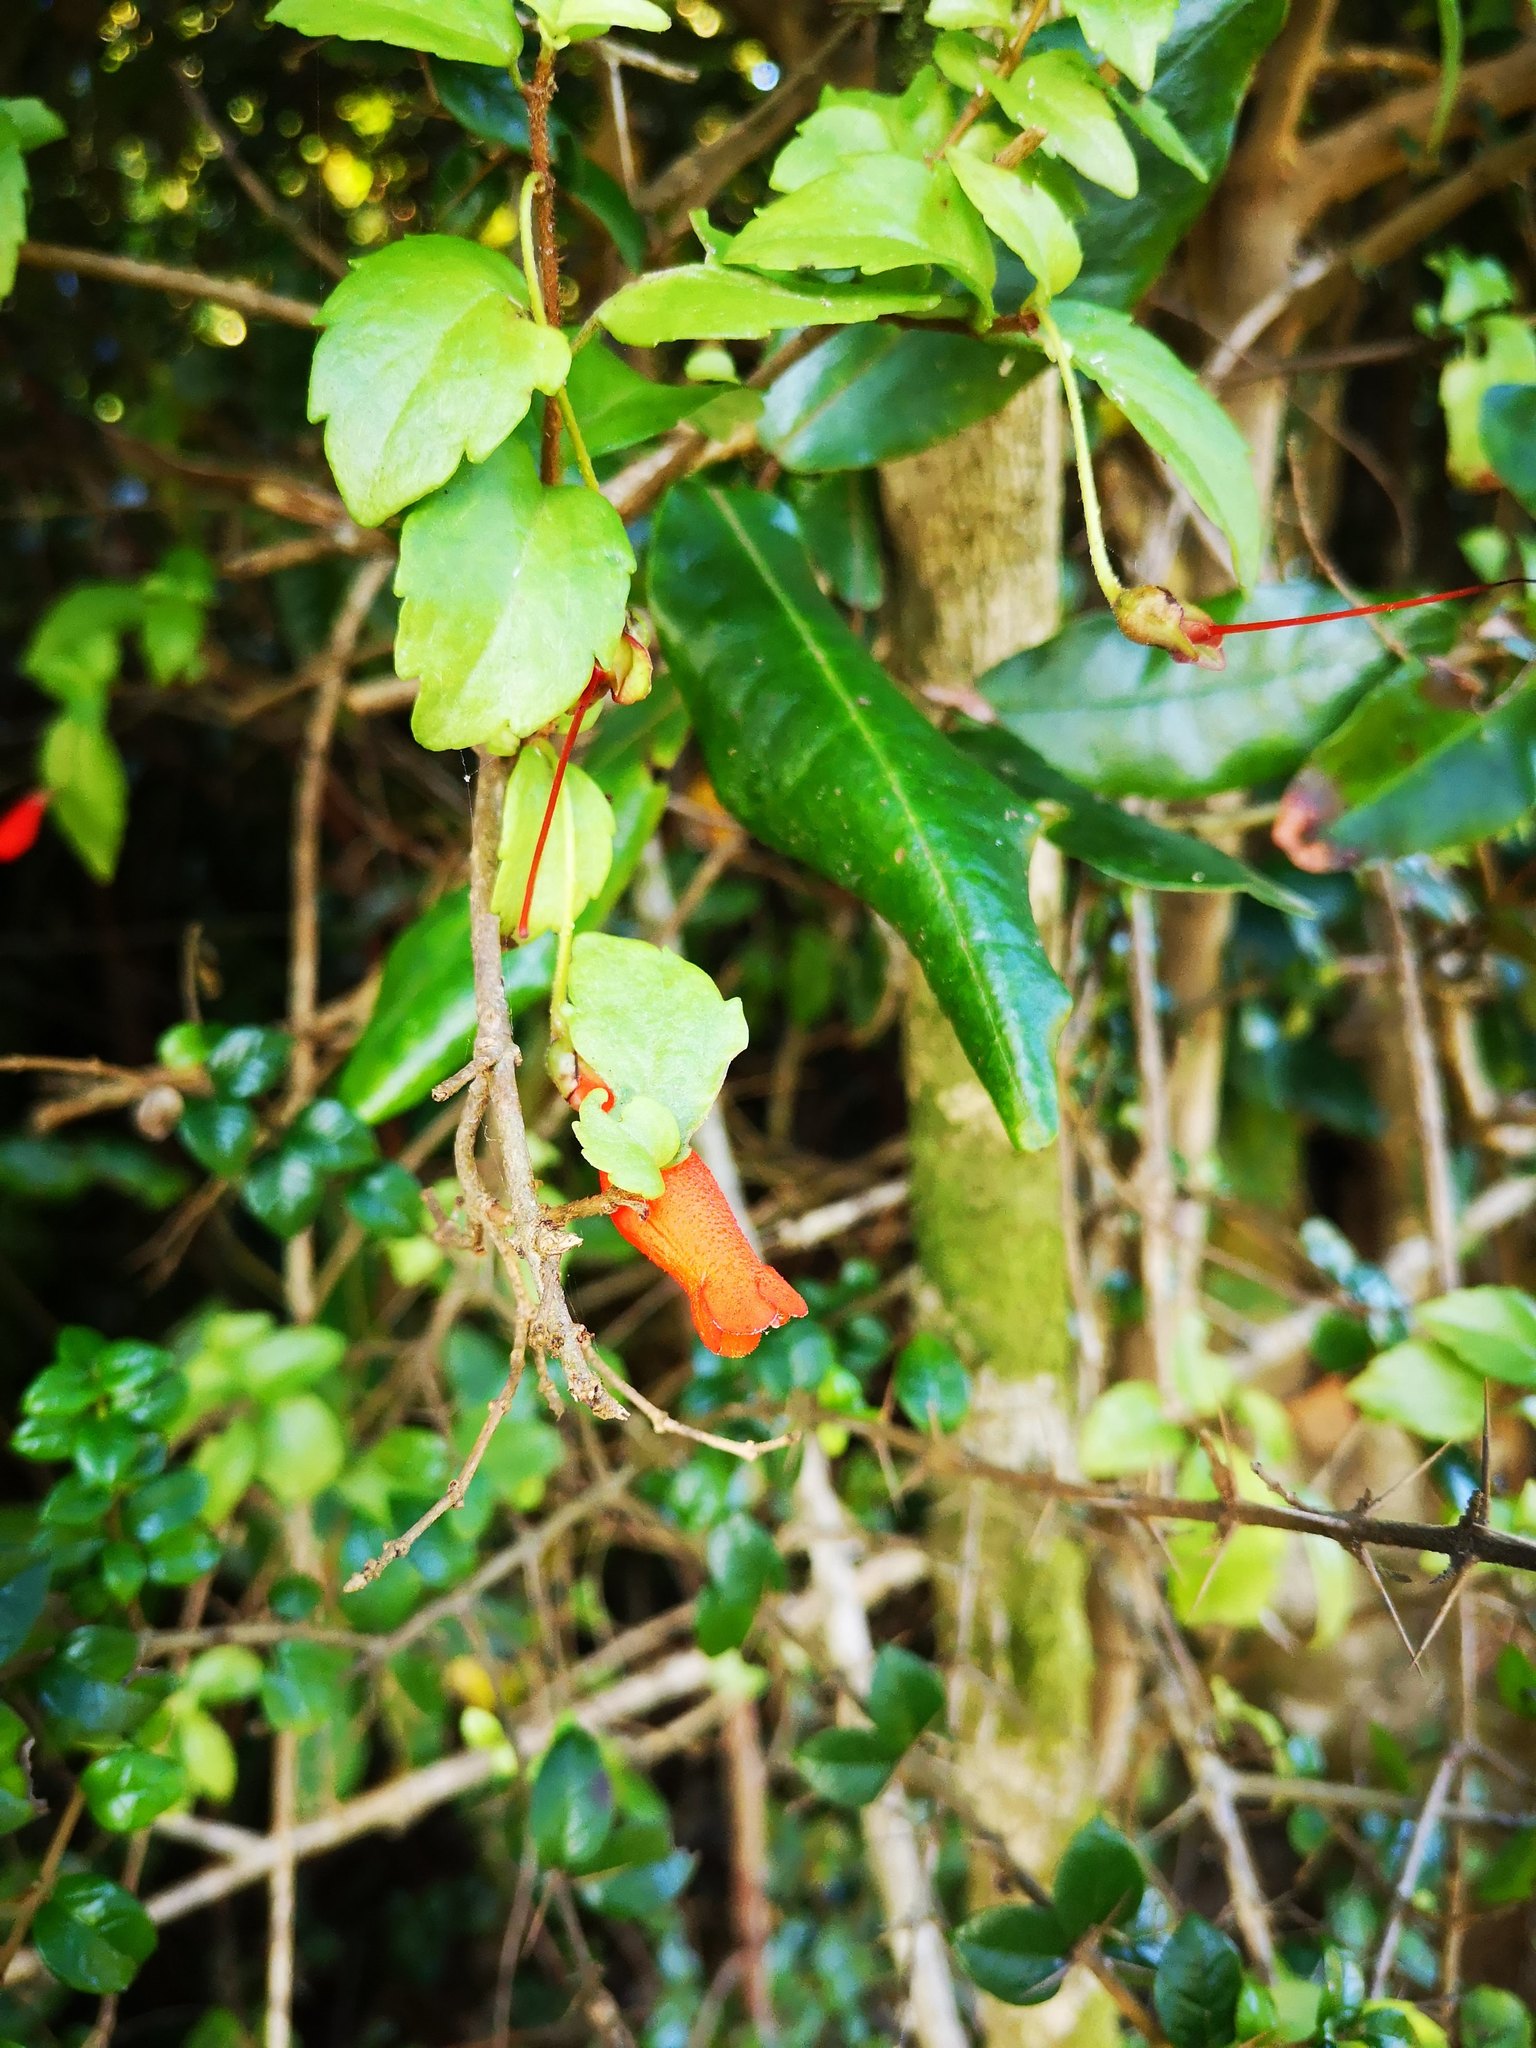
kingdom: Plantae
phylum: Tracheophyta
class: Magnoliopsida
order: Lamiales
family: Gesneriaceae
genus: Mitraria
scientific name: Mitraria coccinea
